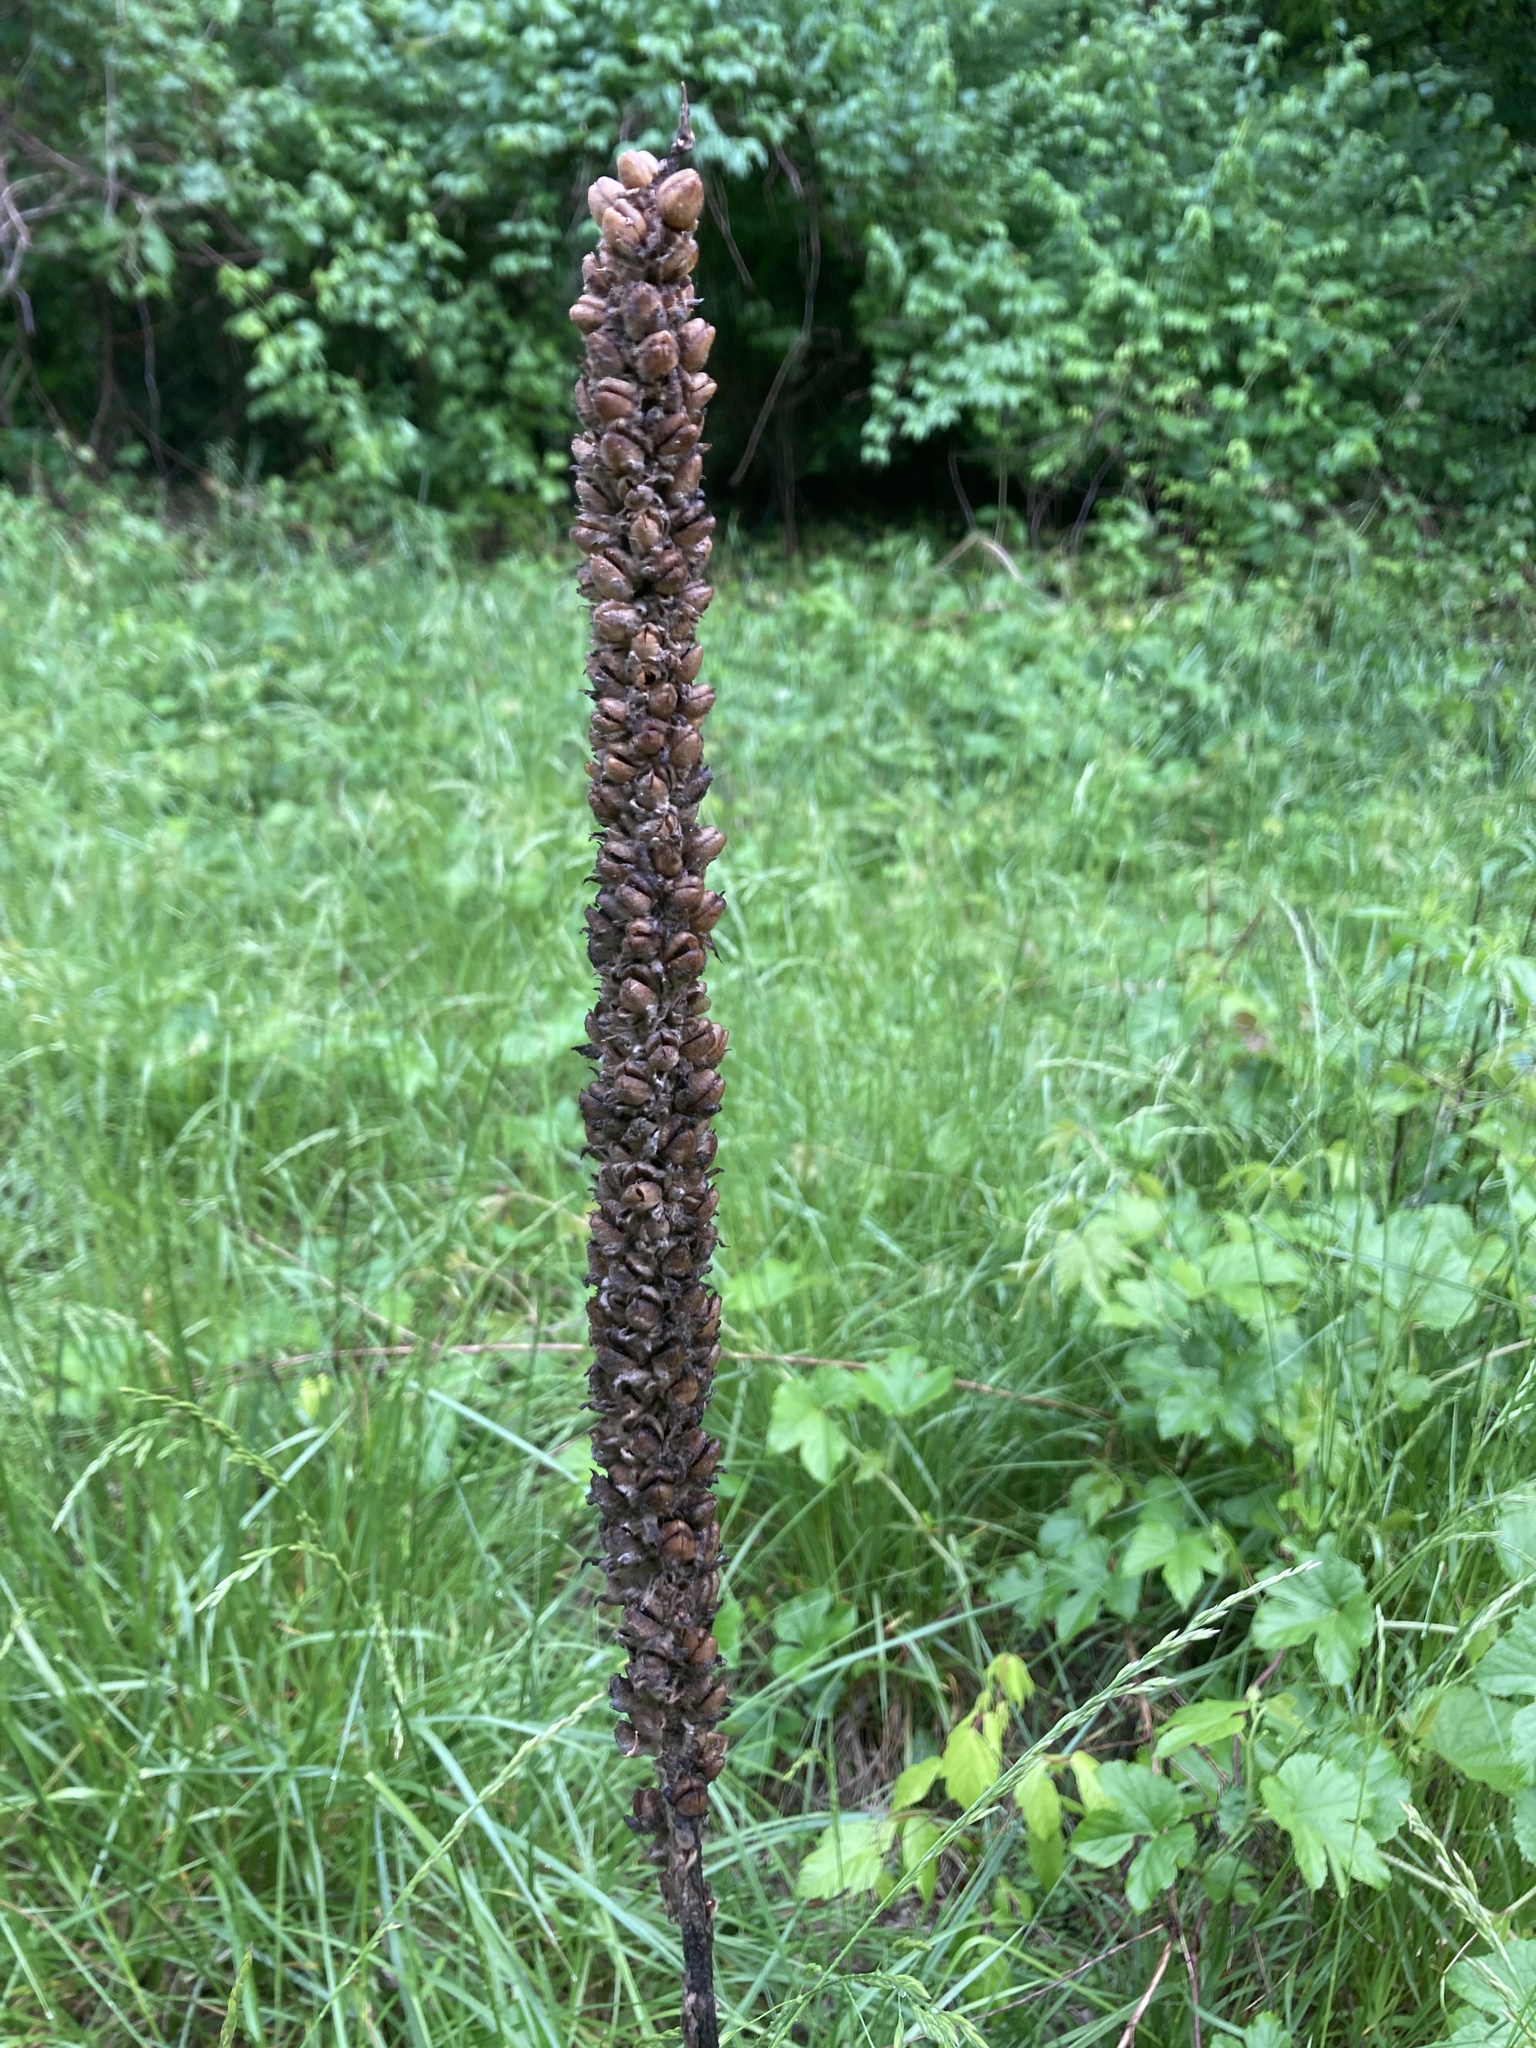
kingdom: Plantae
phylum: Tracheophyta
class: Magnoliopsida
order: Lamiales
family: Scrophulariaceae
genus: Verbascum
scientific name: Verbascum thapsus
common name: Common mullein
